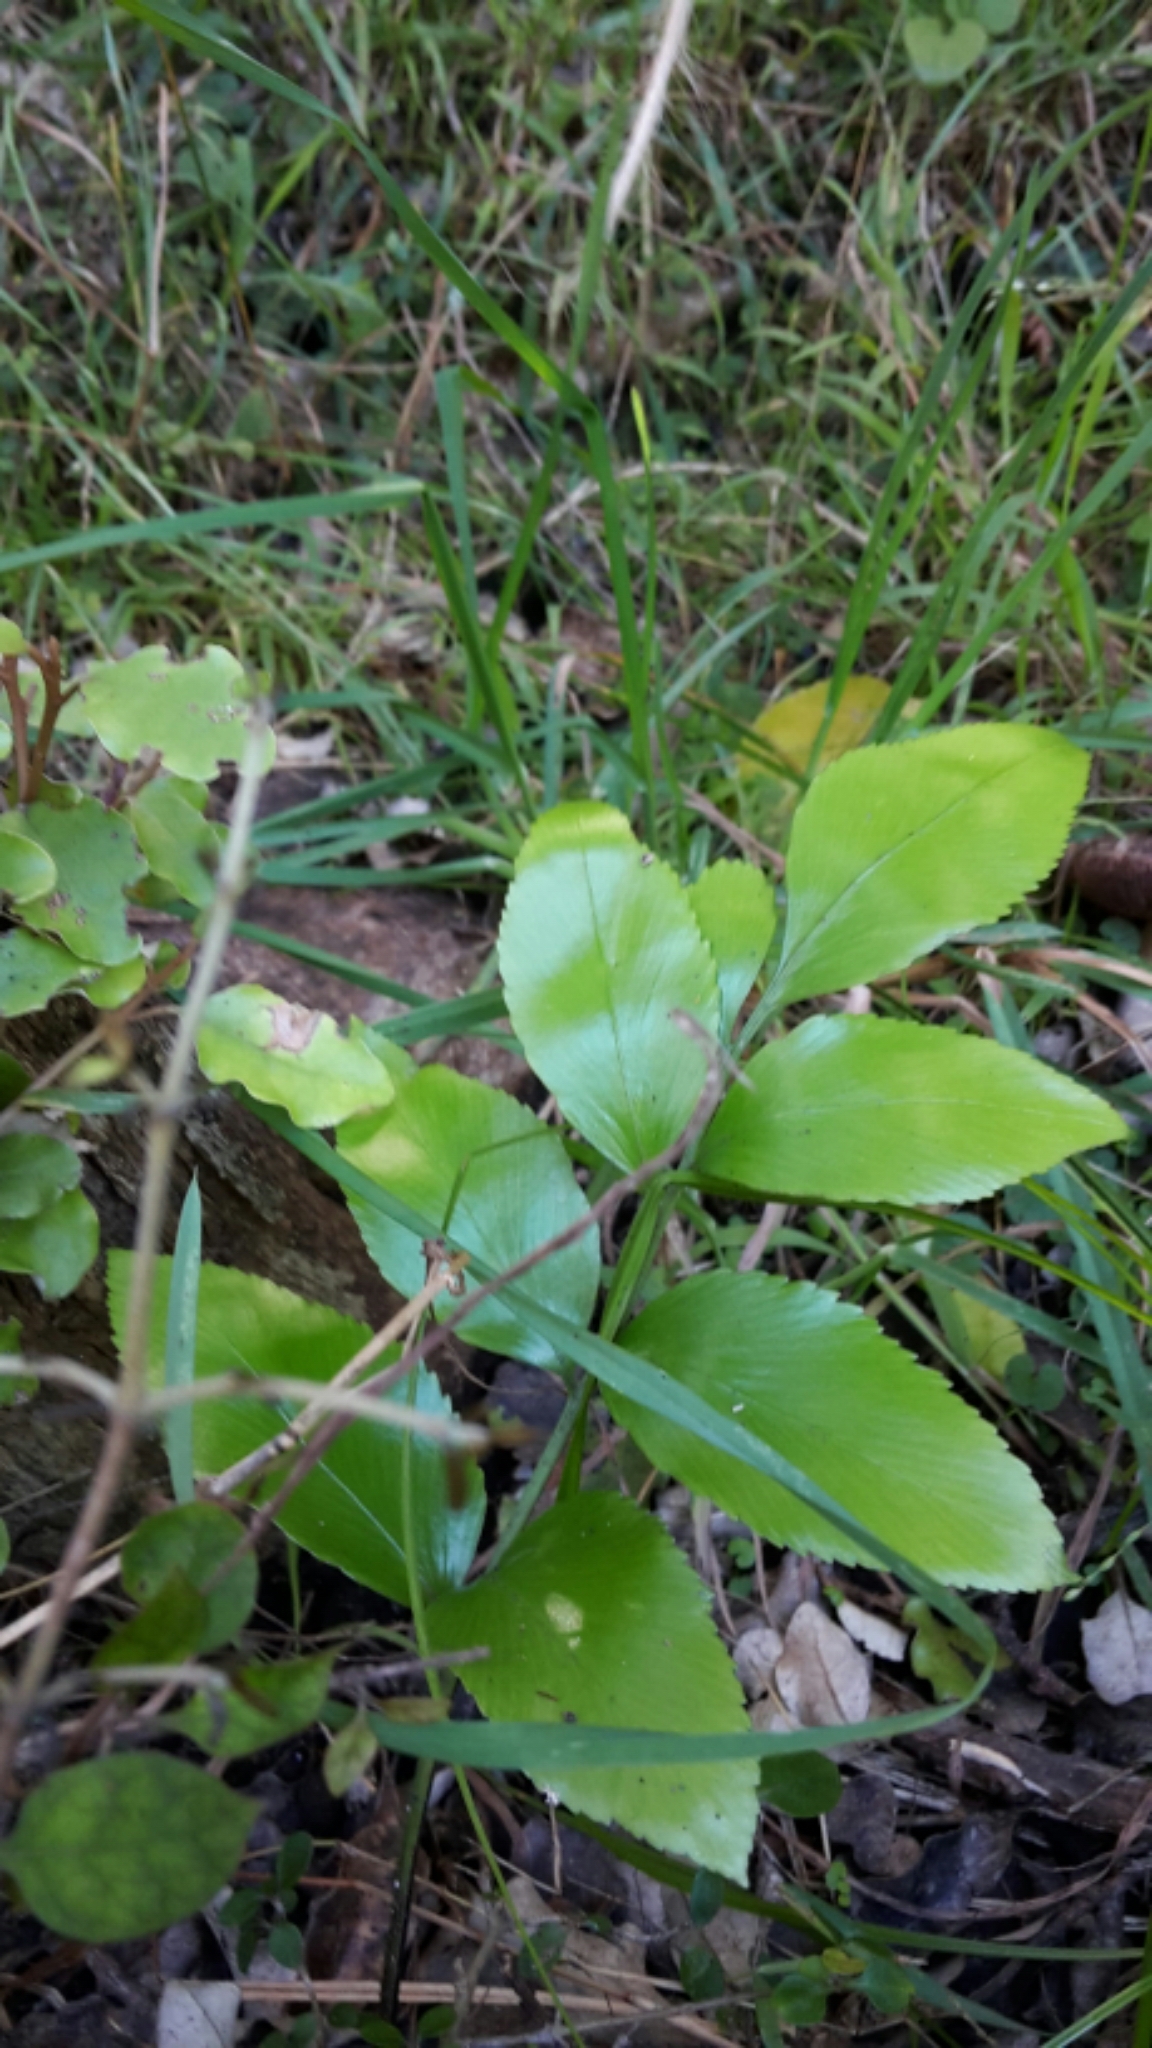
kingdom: Plantae
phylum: Tracheophyta
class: Polypodiopsida
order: Polypodiales
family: Aspleniaceae
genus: Asplenium
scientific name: Asplenium oblongifolium
